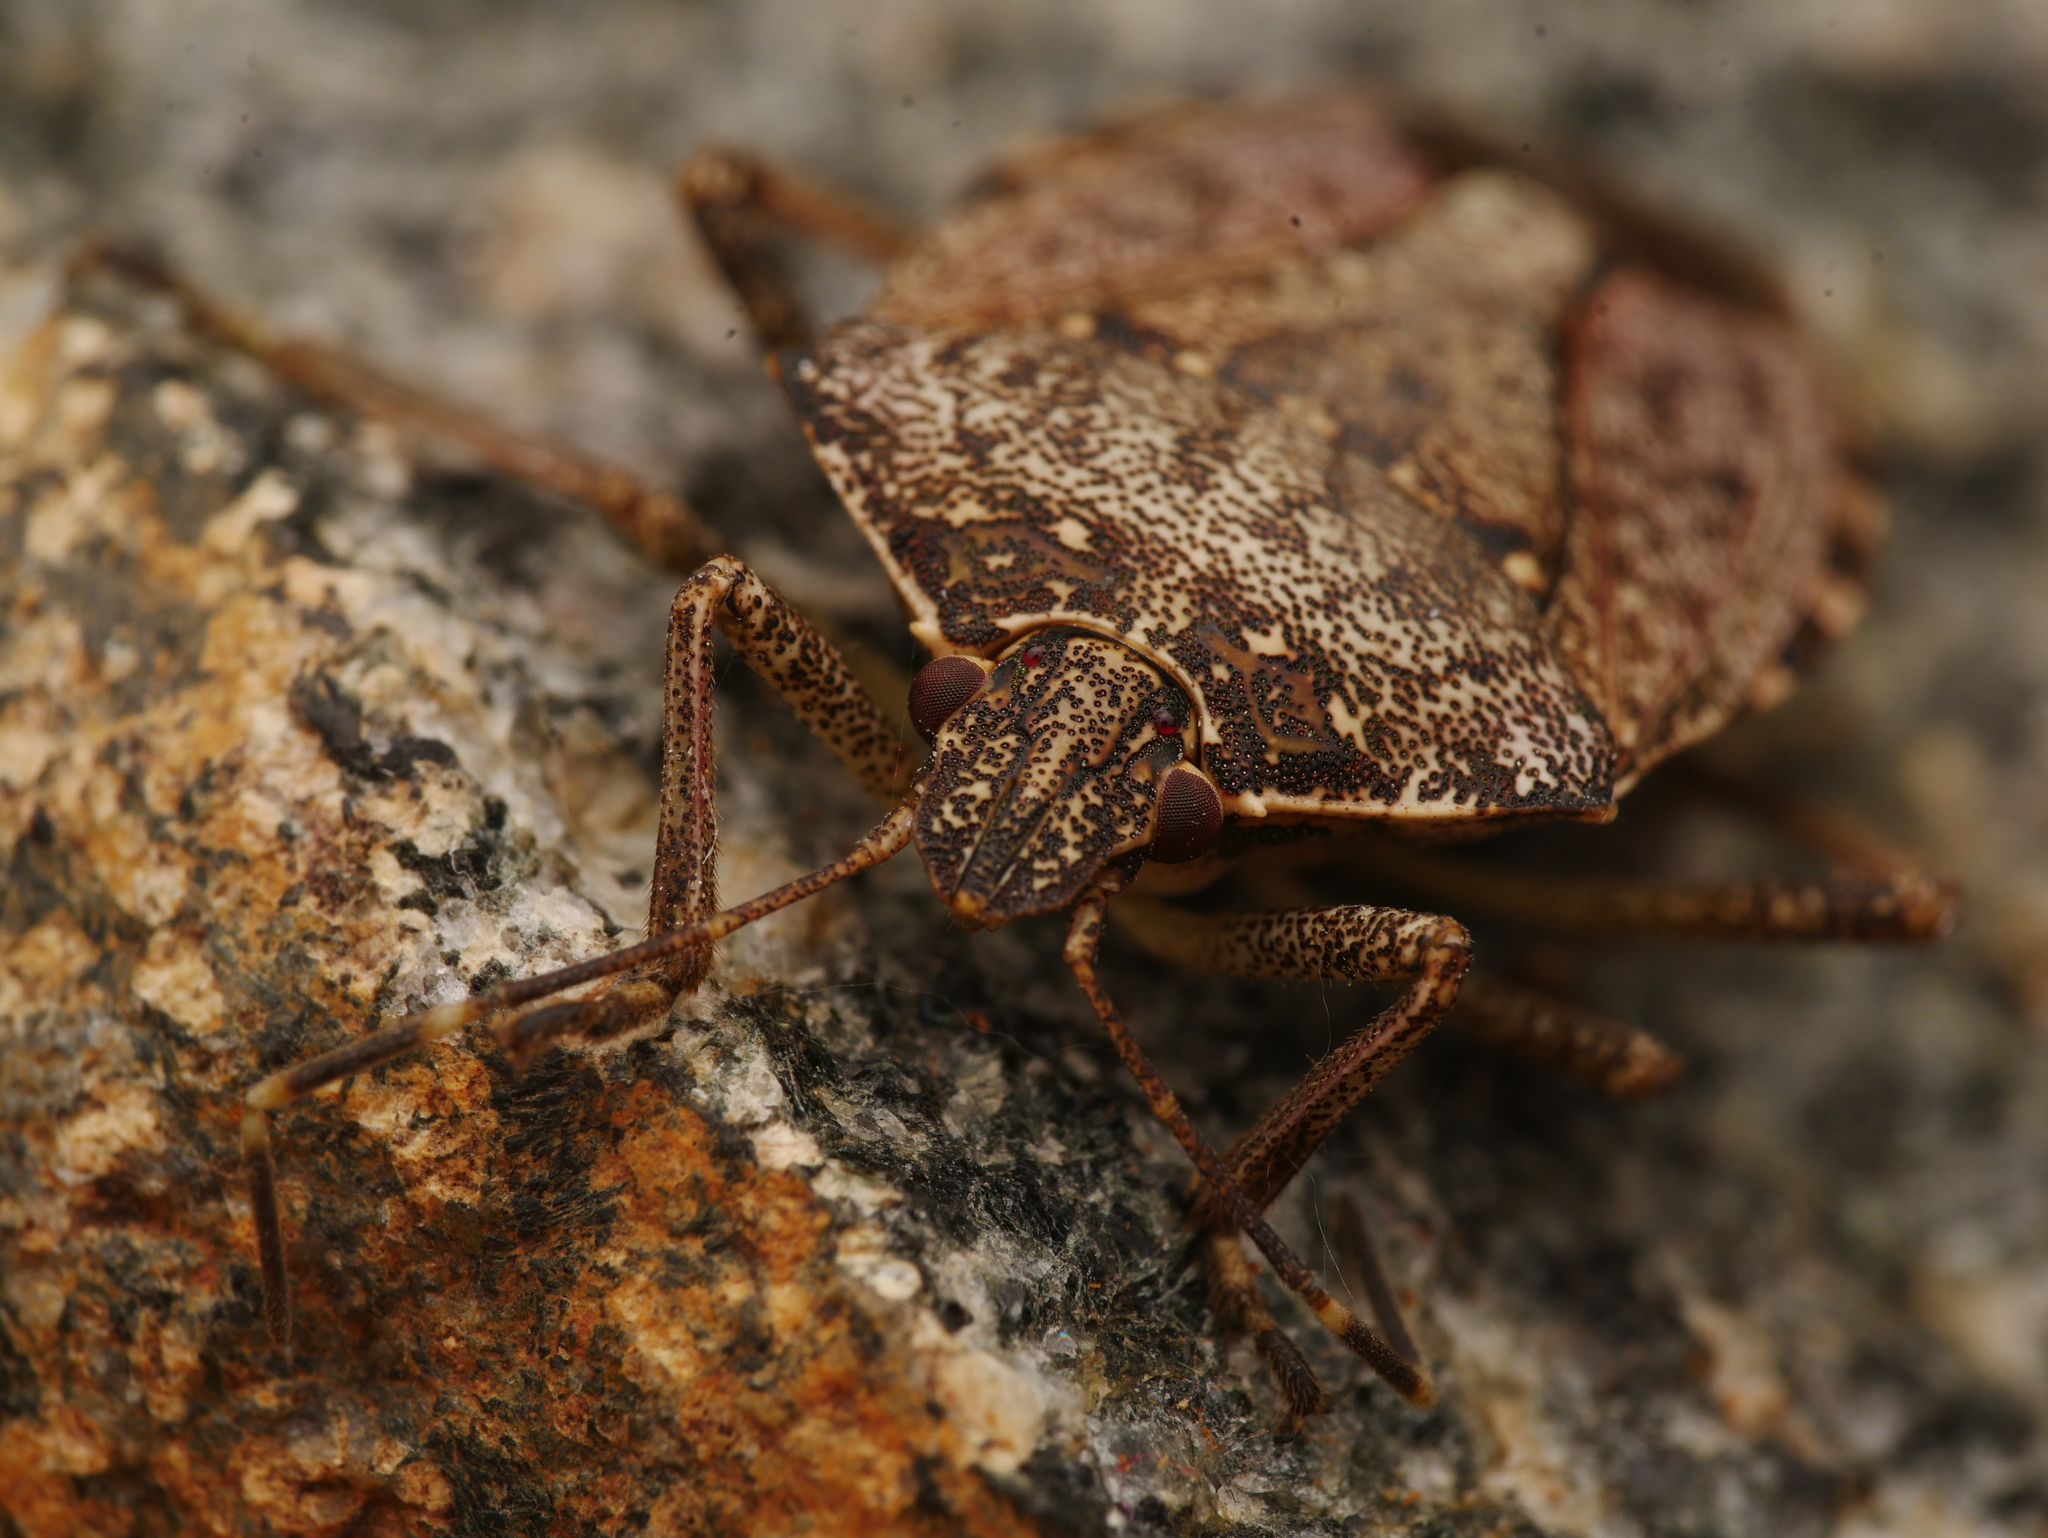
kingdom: Animalia
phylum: Arthropoda
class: Insecta
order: Hemiptera
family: Pentatomidae
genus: Halyomorpha
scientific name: Halyomorpha halys
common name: Brown marmorated stink bug
